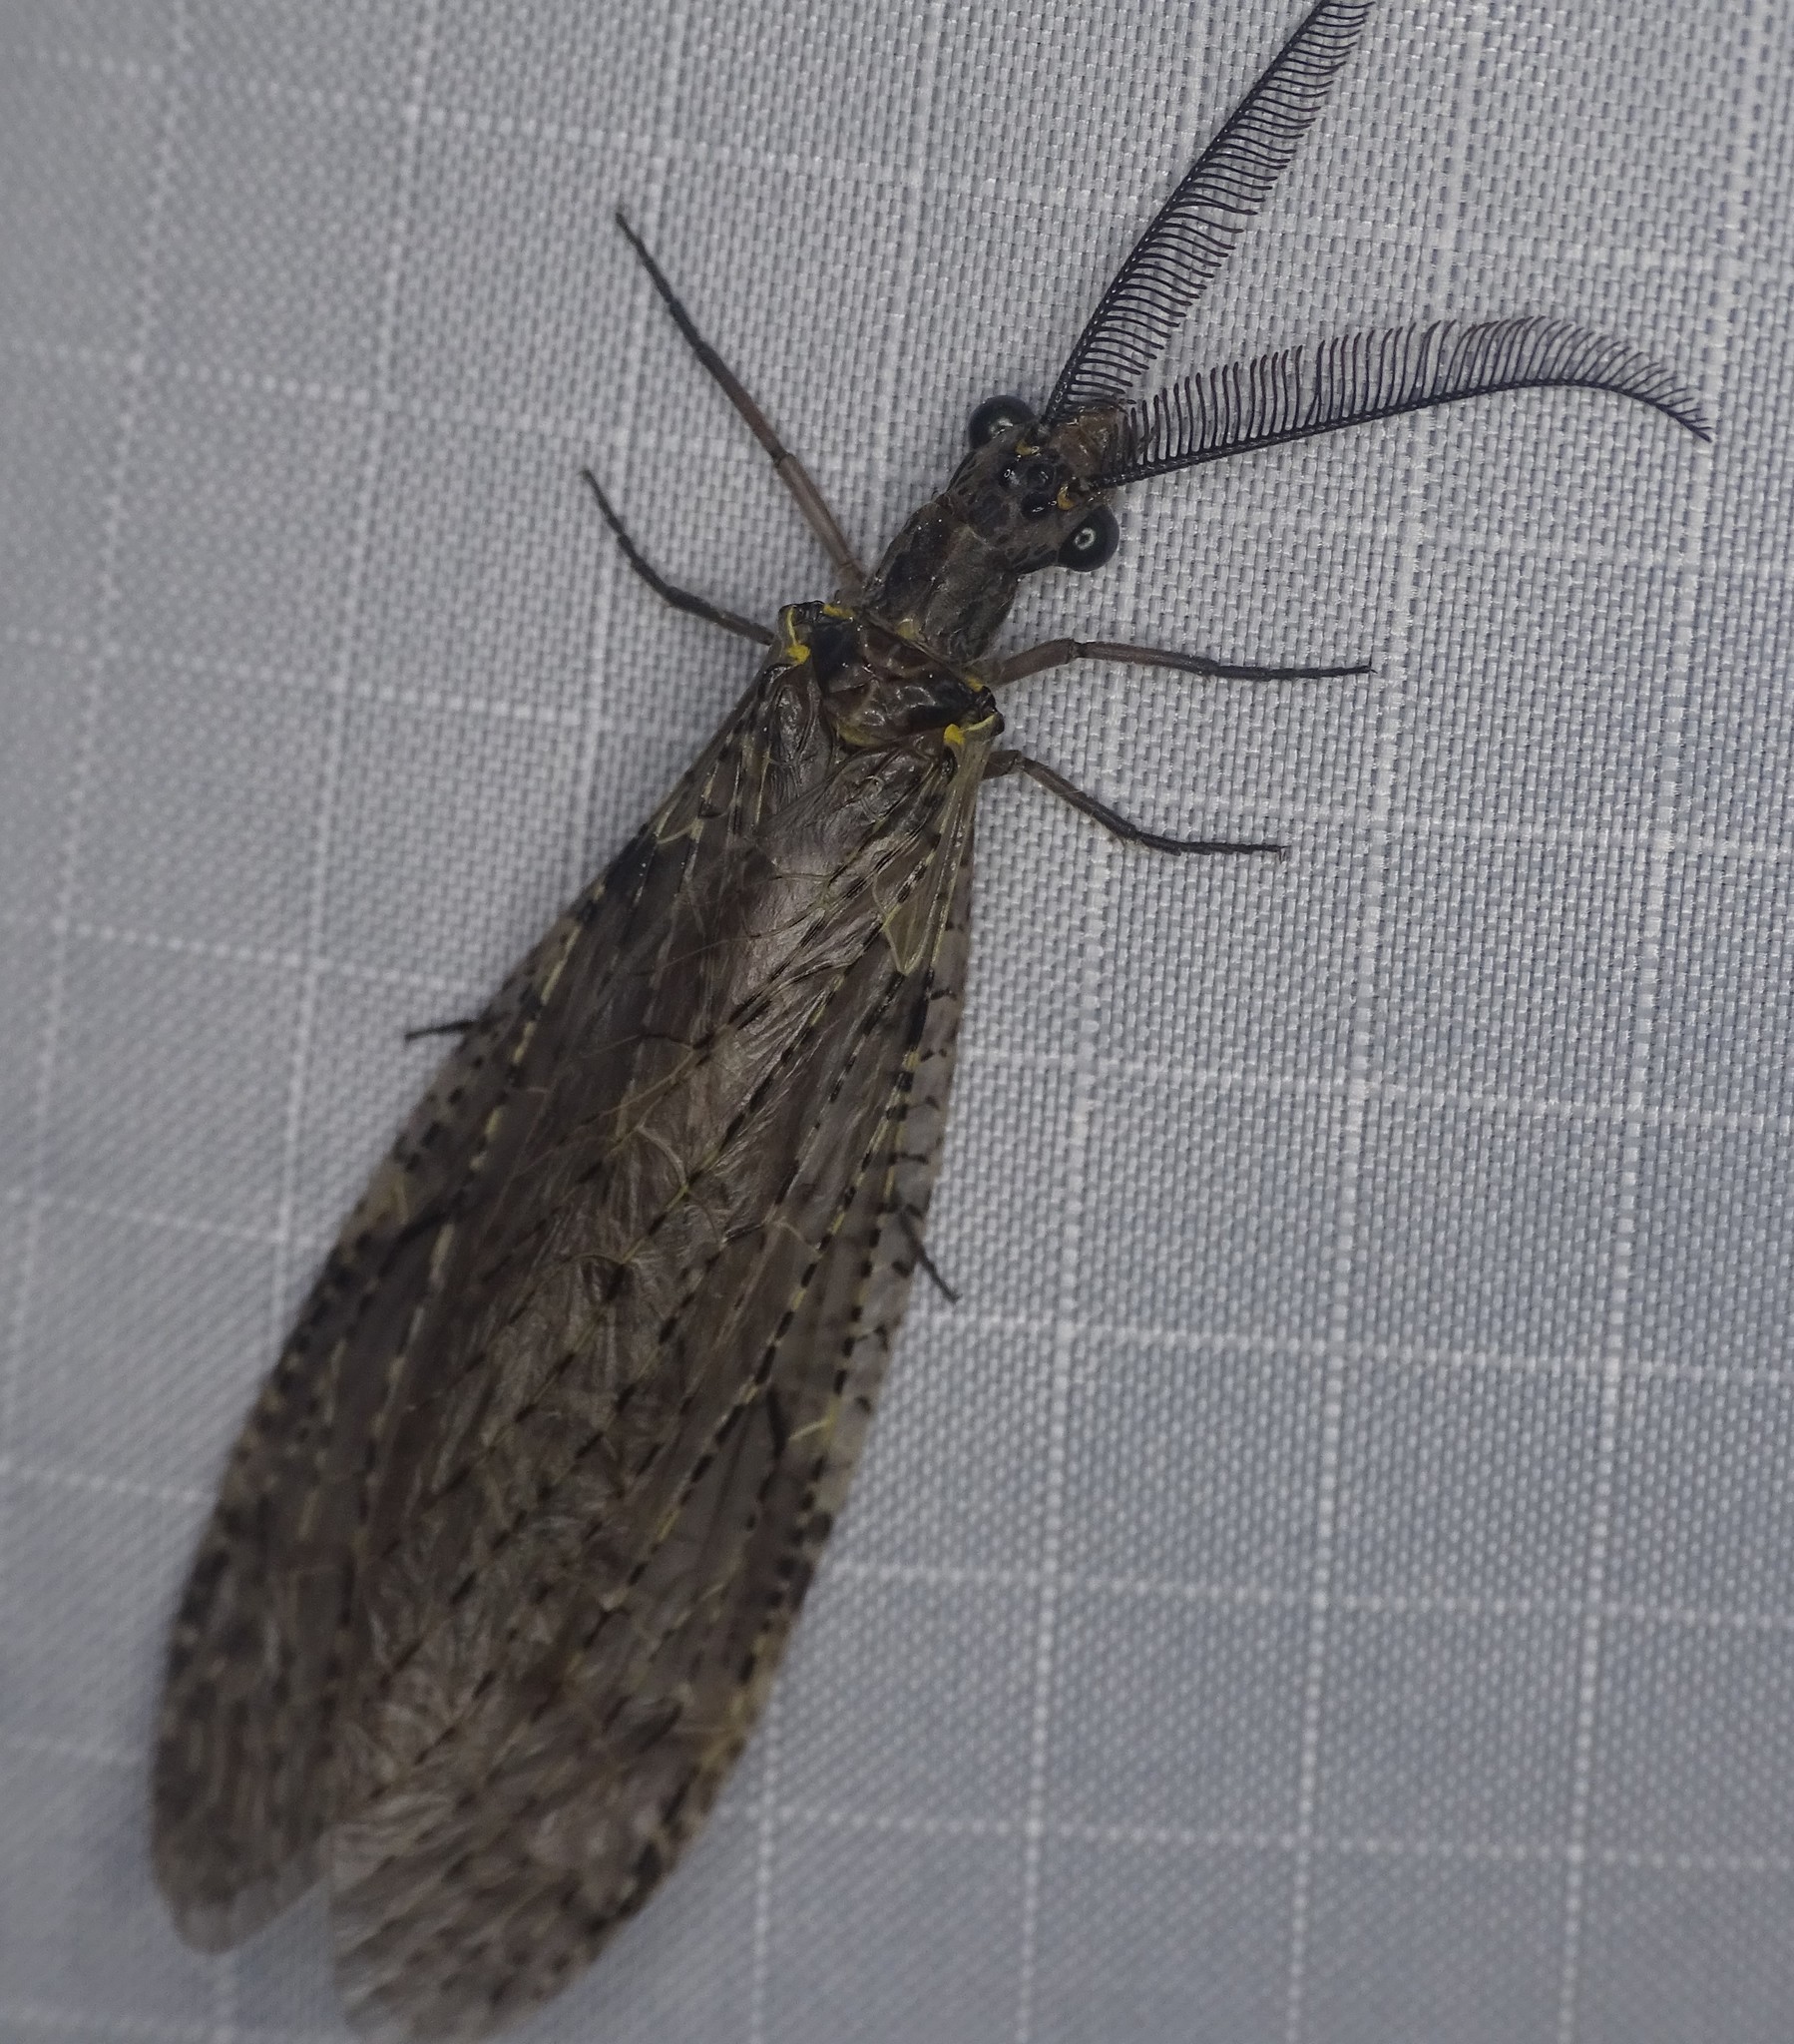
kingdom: Animalia
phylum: Arthropoda
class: Insecta
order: Megaloptera
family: Corydalidae
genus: Chauliodes
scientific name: Chauliodes rastricornis
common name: Spring fishfly
